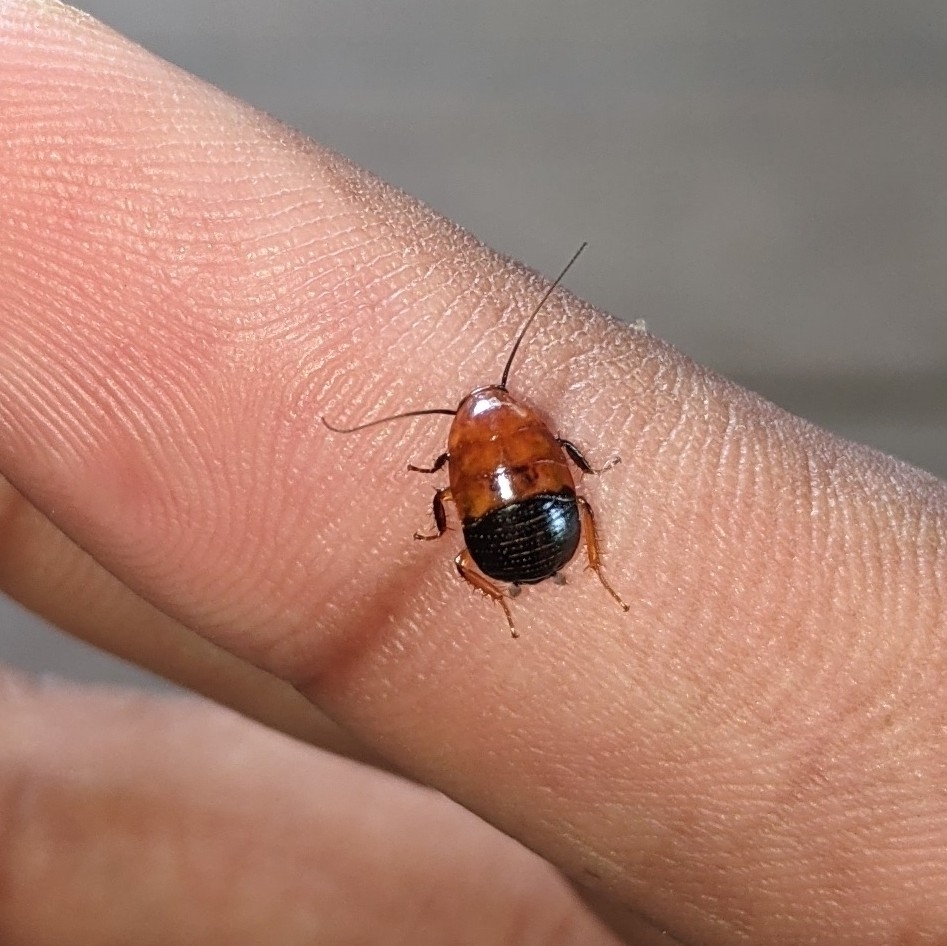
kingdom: Animalia
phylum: Arthropoda
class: Insecta
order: Blattodea
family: Ectobiidae
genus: Hemithyrsocera
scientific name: Hemithyrsocera palliata
